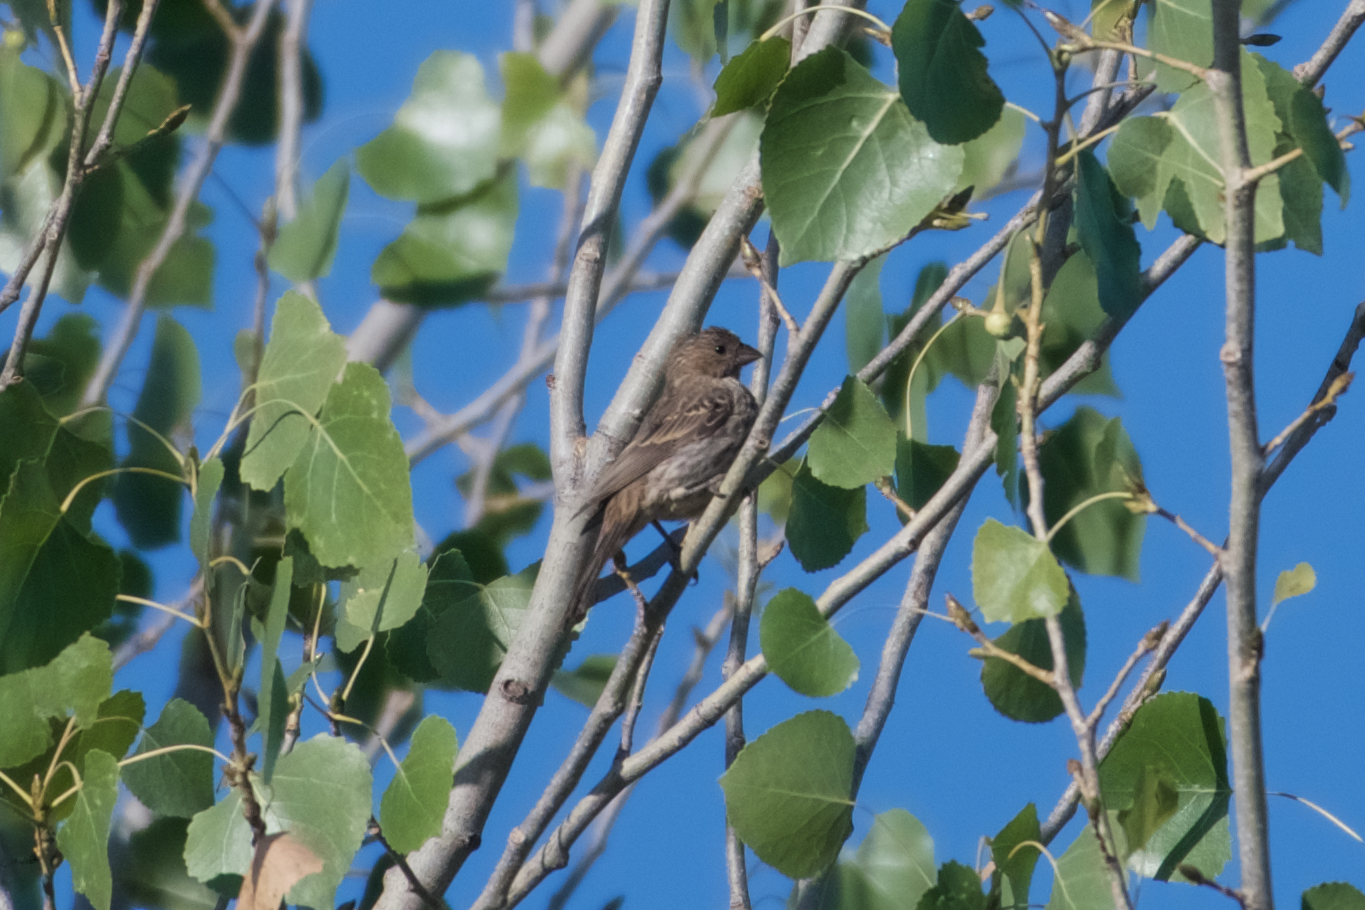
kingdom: Animalia
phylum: Chordata
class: Aves
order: Passeriformes
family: Fringillidae
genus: Haemorhous
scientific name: Haemorhous mexicanus
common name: House finch
